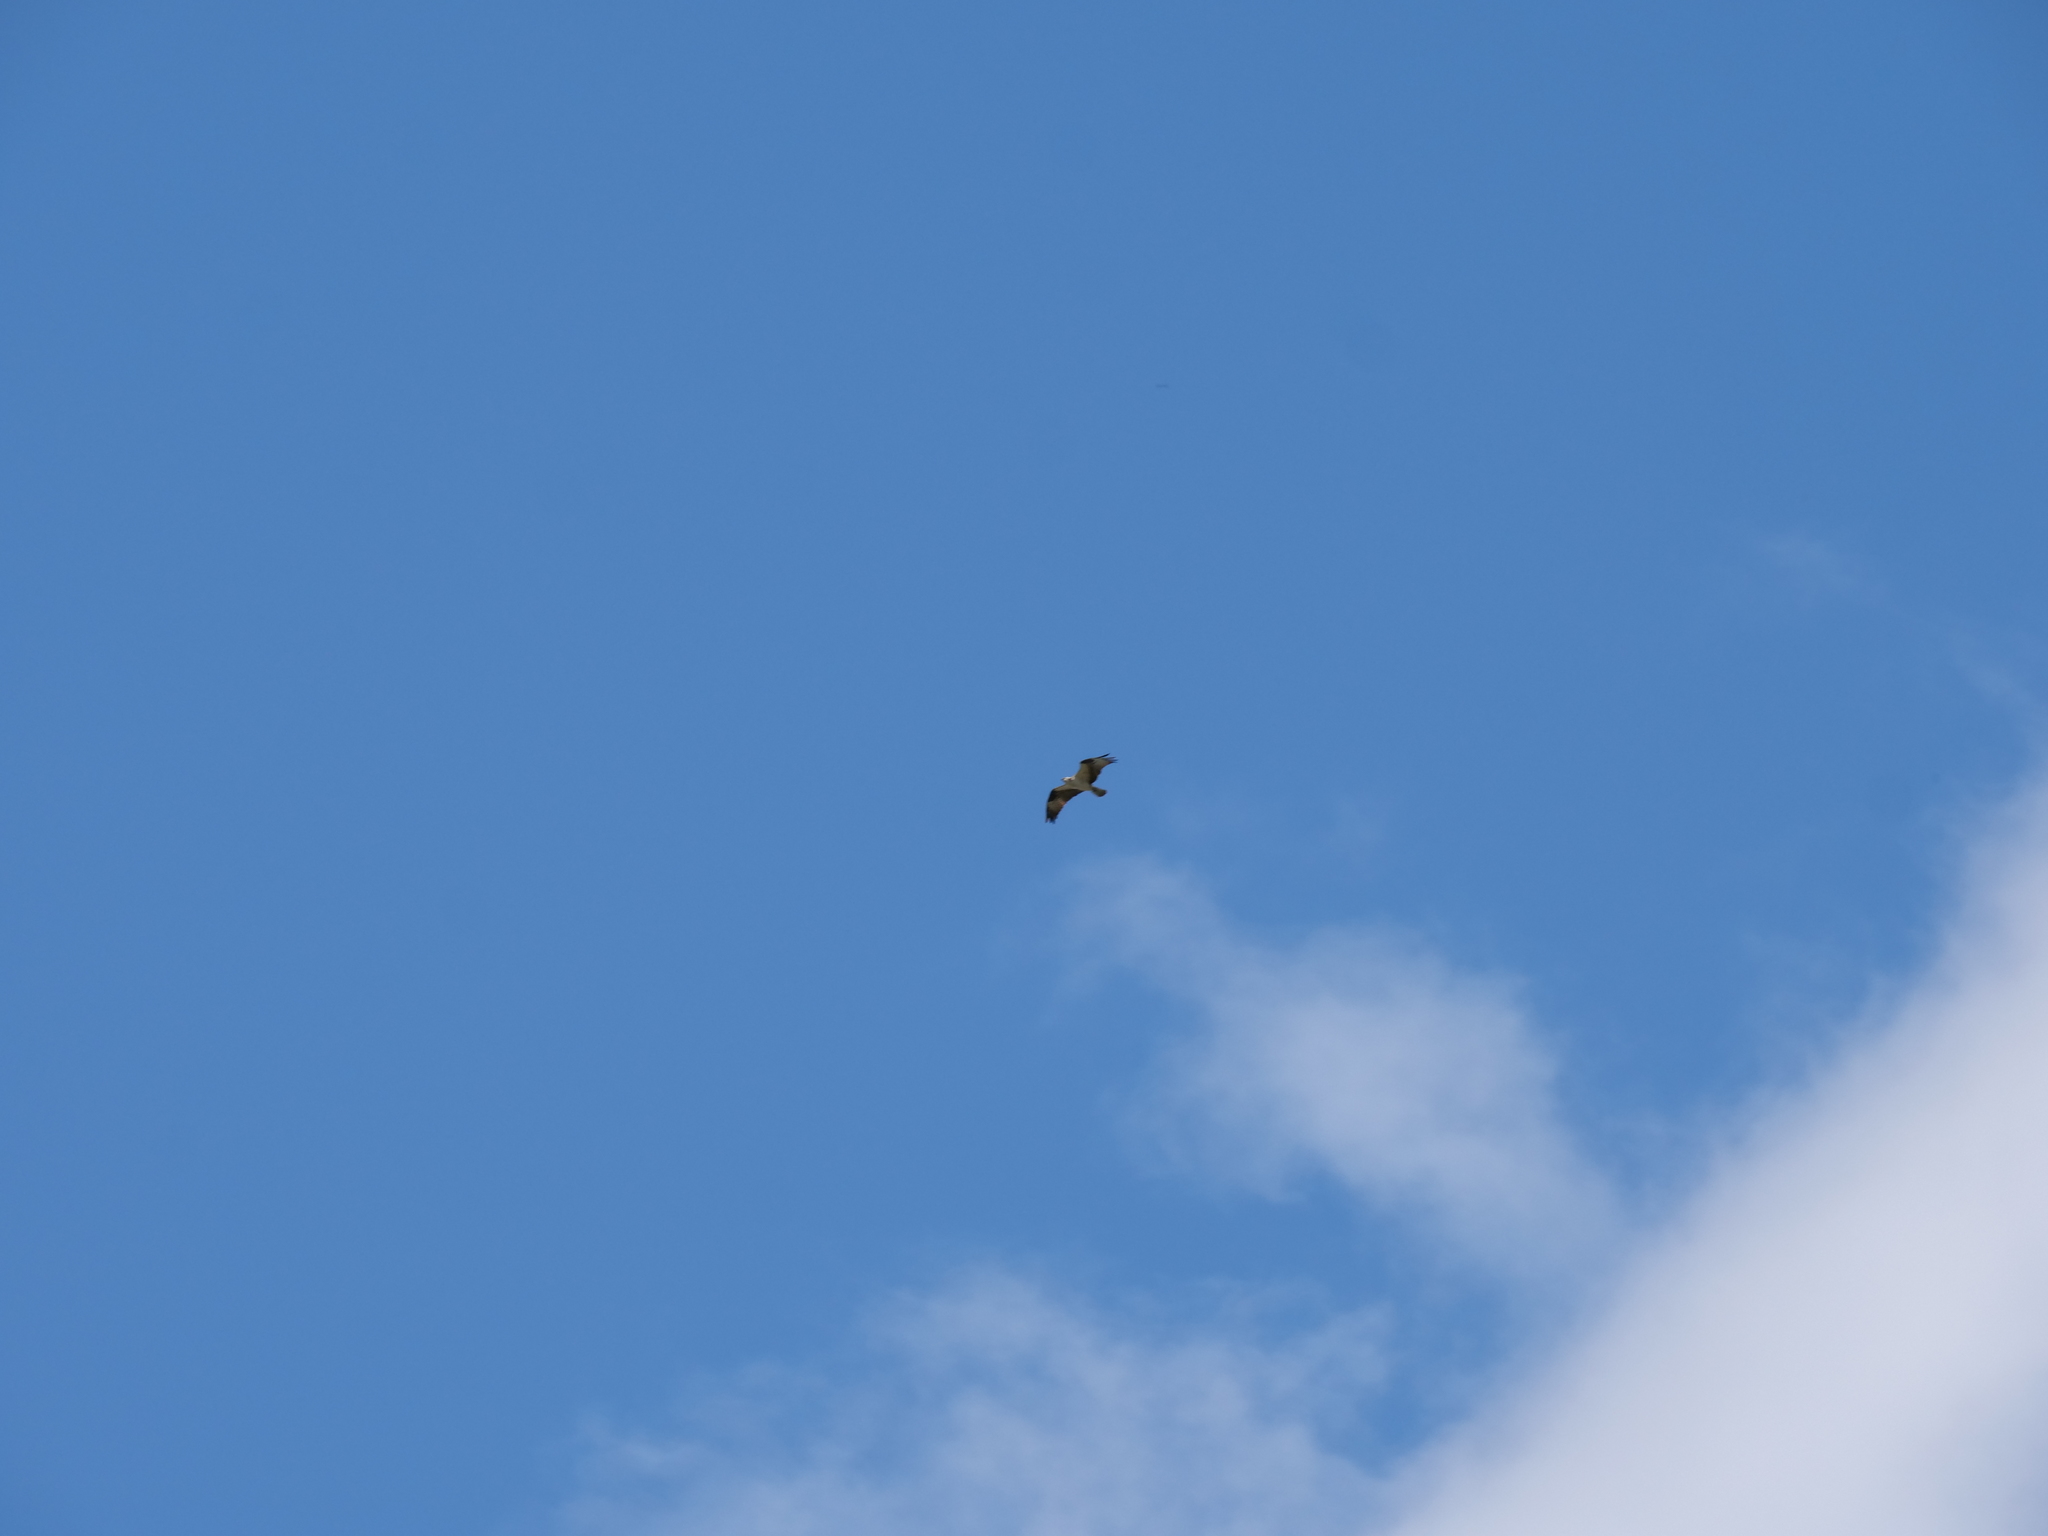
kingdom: Animalia
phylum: Chordata
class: Aves
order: Accipitriformes
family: Pandionidae
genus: Pandion
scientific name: Pandion haliaetus
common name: Osprey
